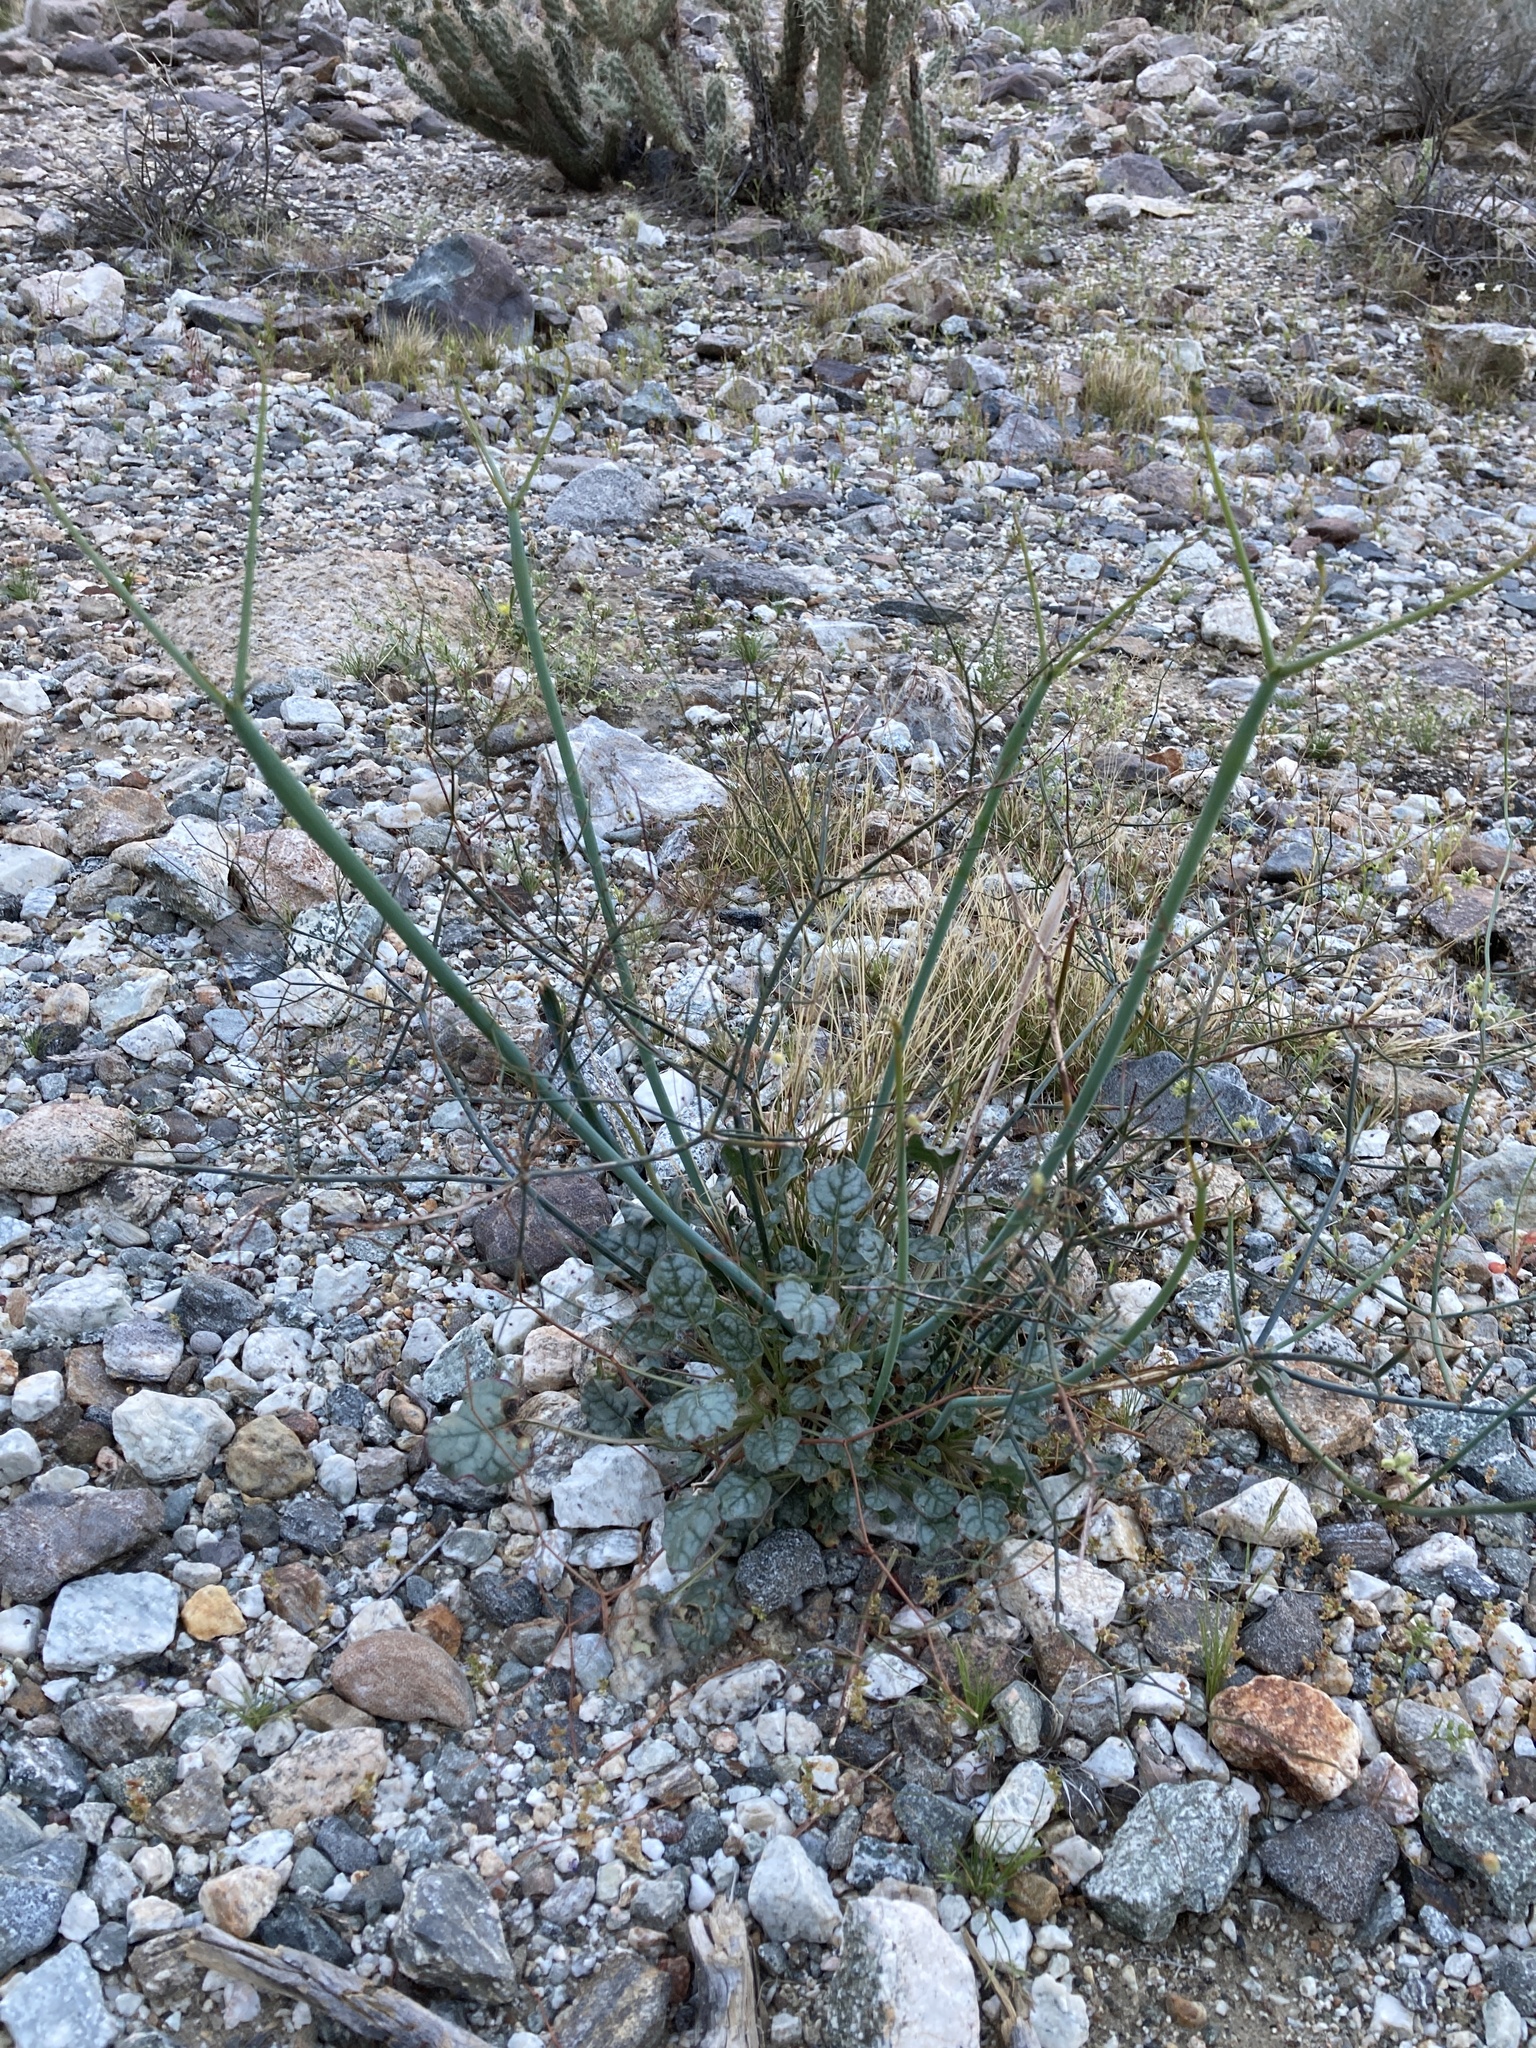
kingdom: Plantae
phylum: Tracheophyta
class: Magnoliopsida
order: Caryophyllales
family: Polygonaceae
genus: Eriogonum
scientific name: Eriogonum inflatum
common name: Desert trumpet
